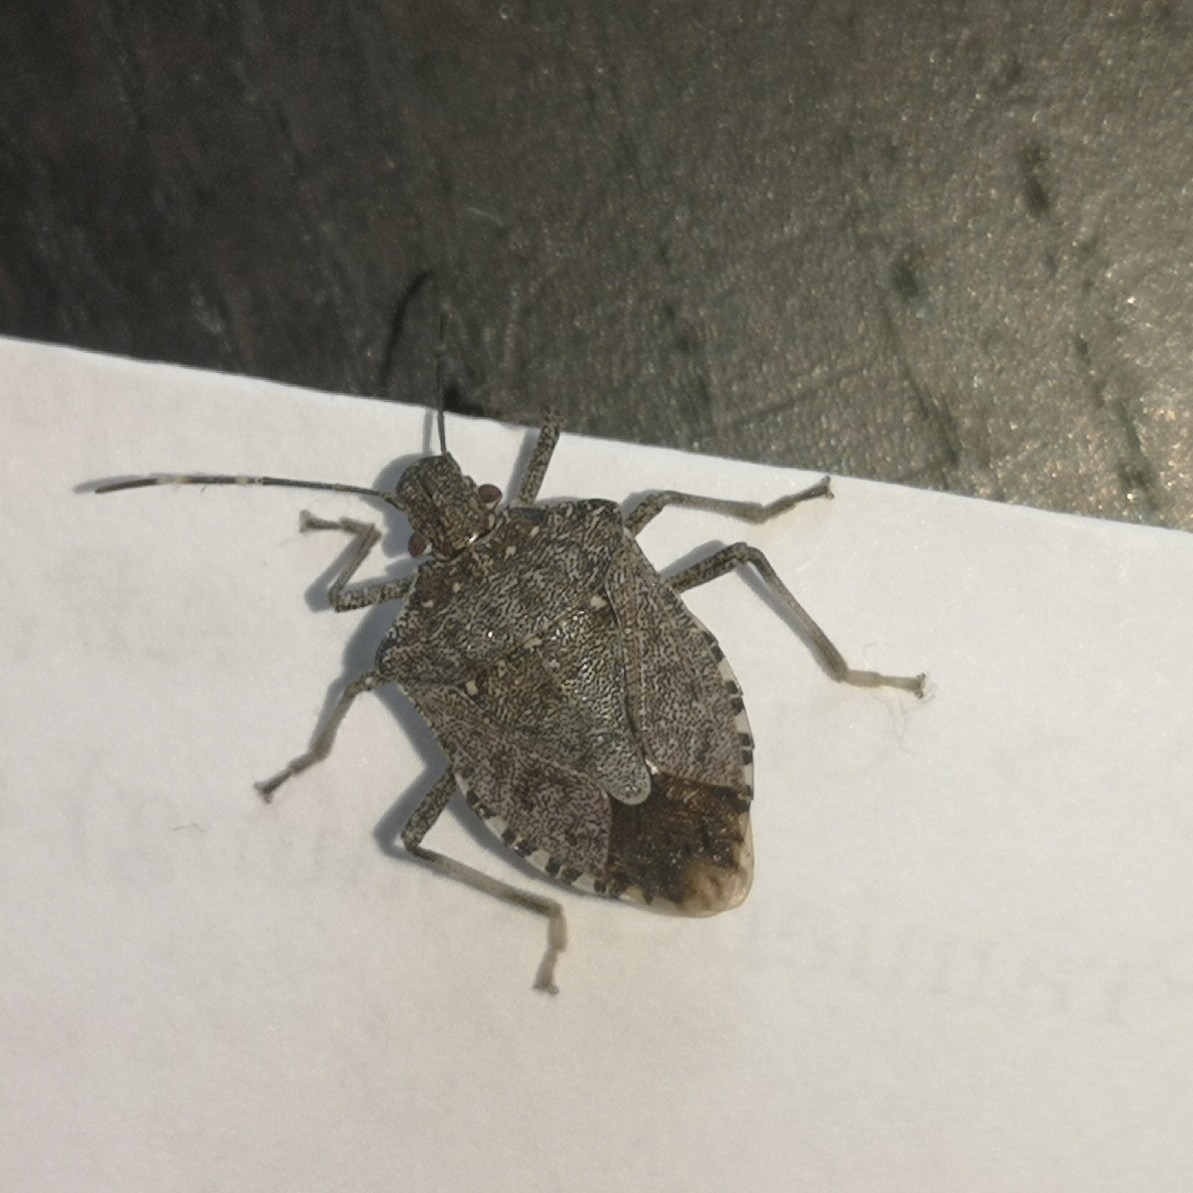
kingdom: Animalia
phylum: Arthropoda
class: Insecta
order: Hemiptera
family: Pentatomidae
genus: Halyomorpha
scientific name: Halyomorpha halys
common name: Brown marmorated stink bug
